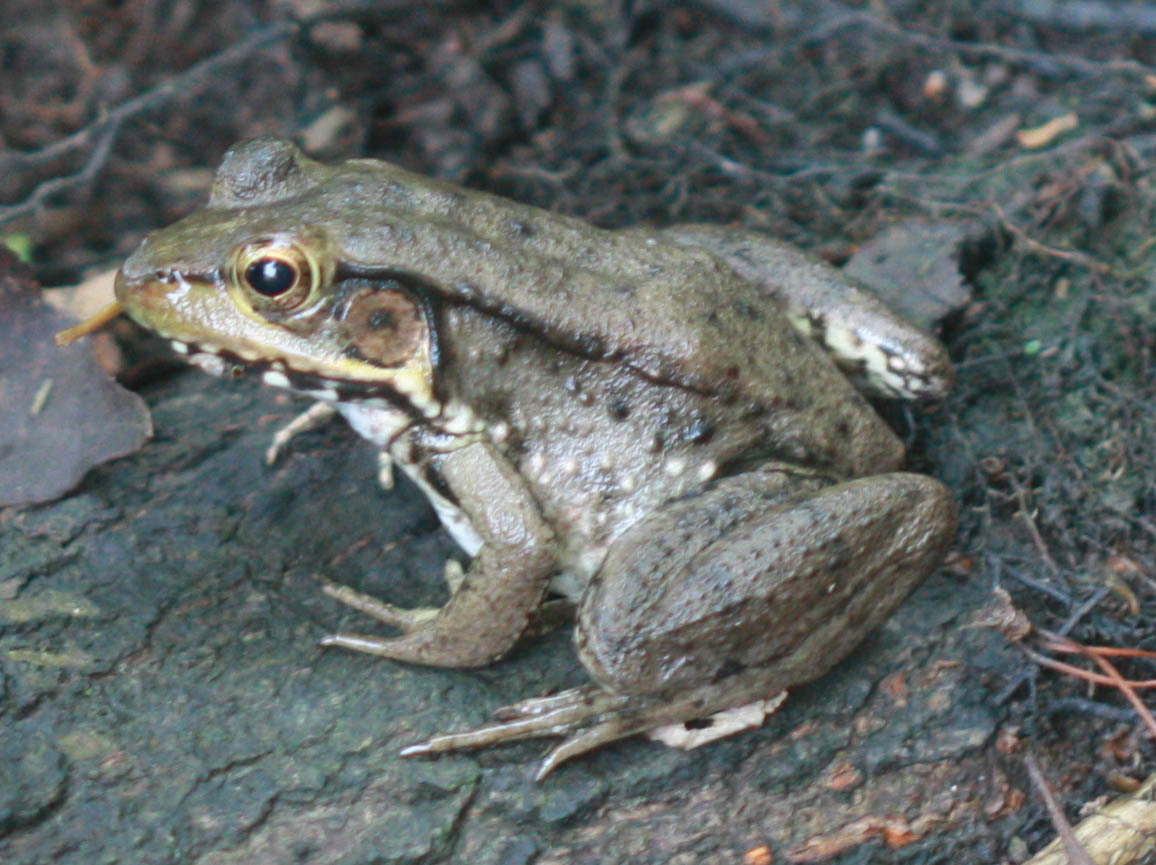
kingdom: Animalia
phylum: Chordata
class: Amphibia
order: Anura
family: Ranidae
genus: Lithobates
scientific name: Lithobates clamitans
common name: Green frog
